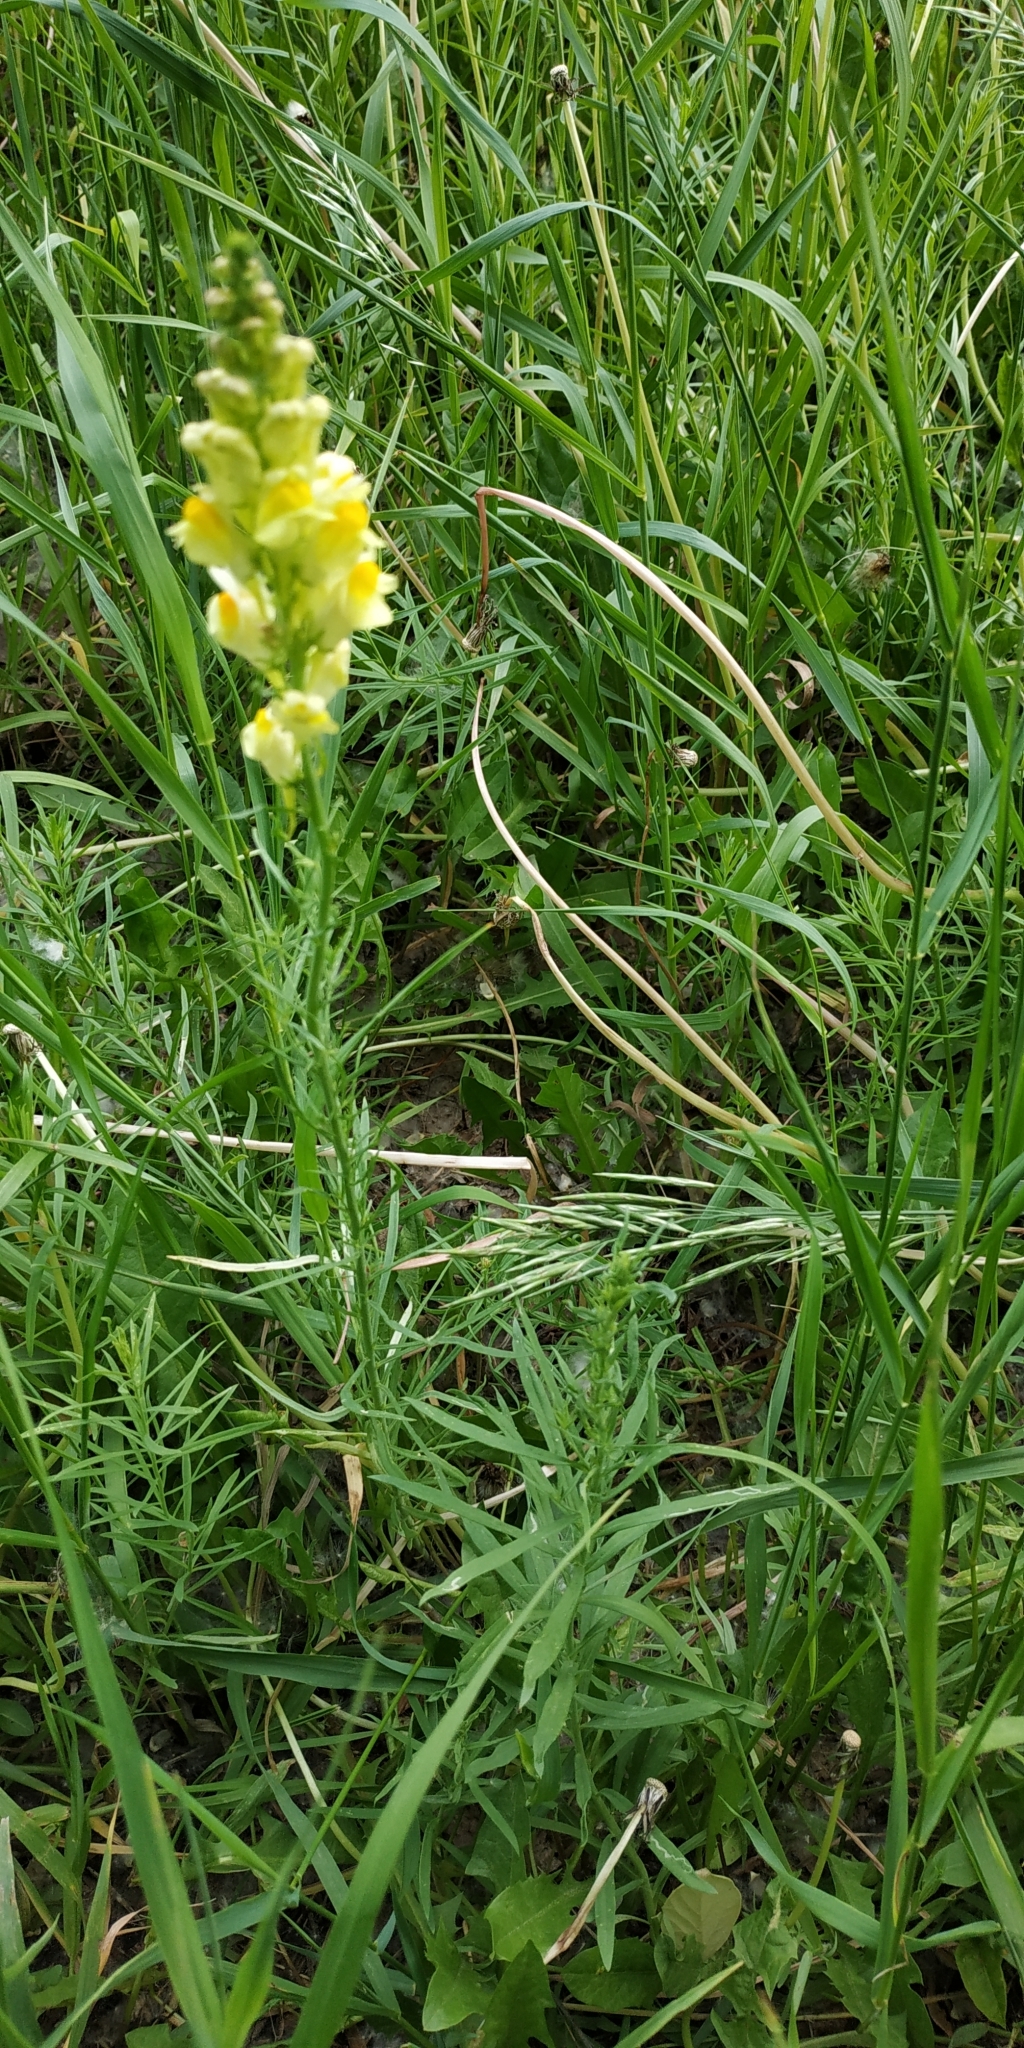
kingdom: Plantae
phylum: Tracheophyta
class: Magnoliopsida
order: Lamiales
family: Plantaginaceae
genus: Linaria
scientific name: Linaria vulgaris
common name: Butter and eggs
